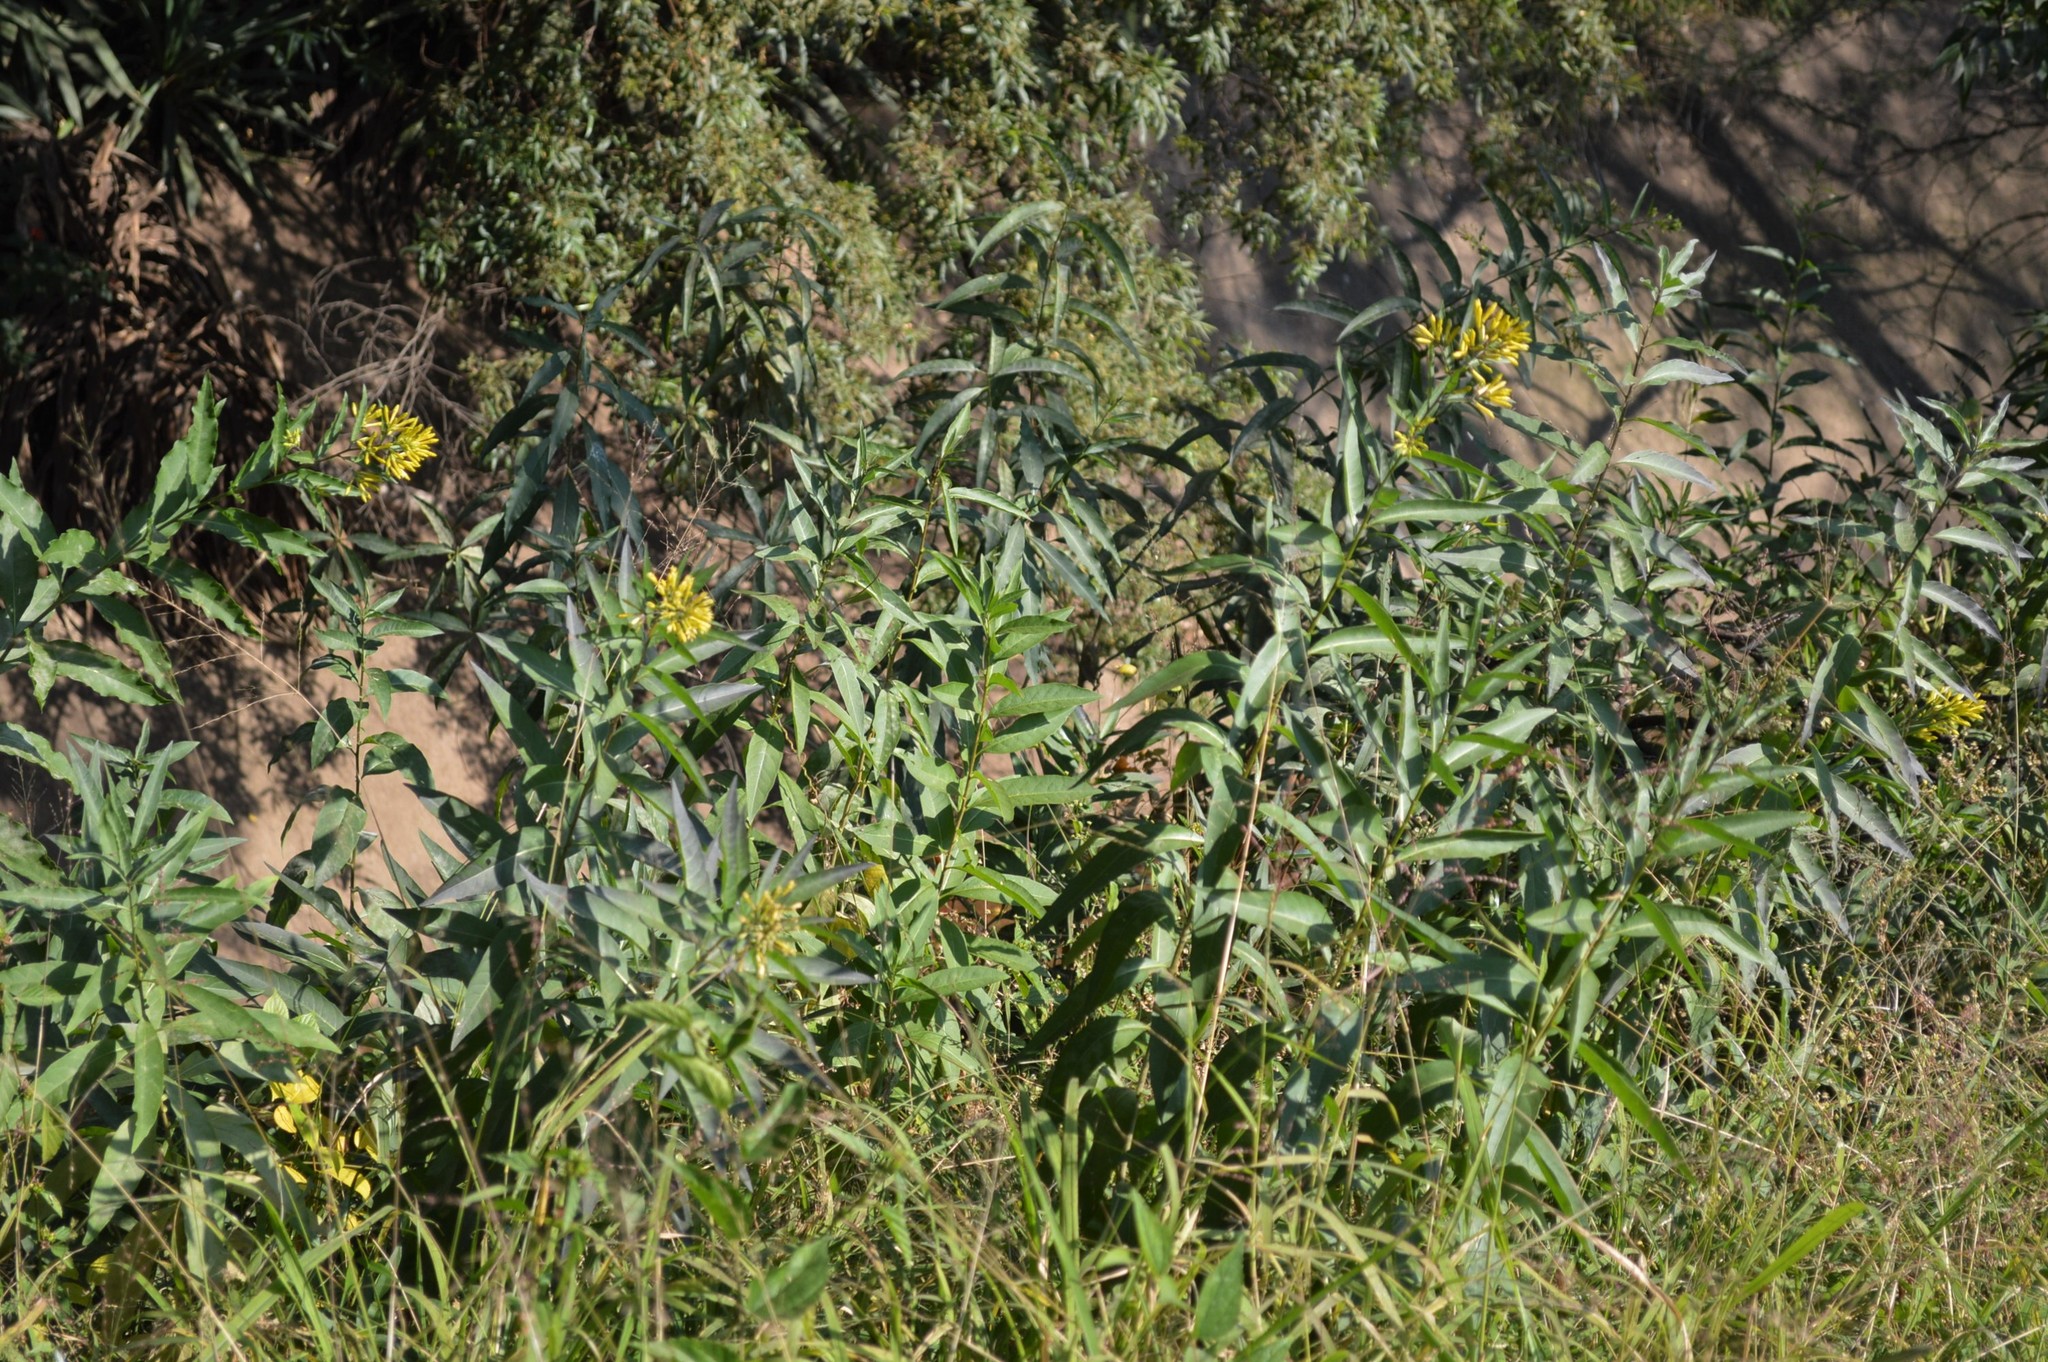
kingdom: Plantae
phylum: Tracheophyta
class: Magnoliopsida
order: Solanales
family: Solanaceae
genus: Cestrum
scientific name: Cestrum parqui
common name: Chilean cestrum
